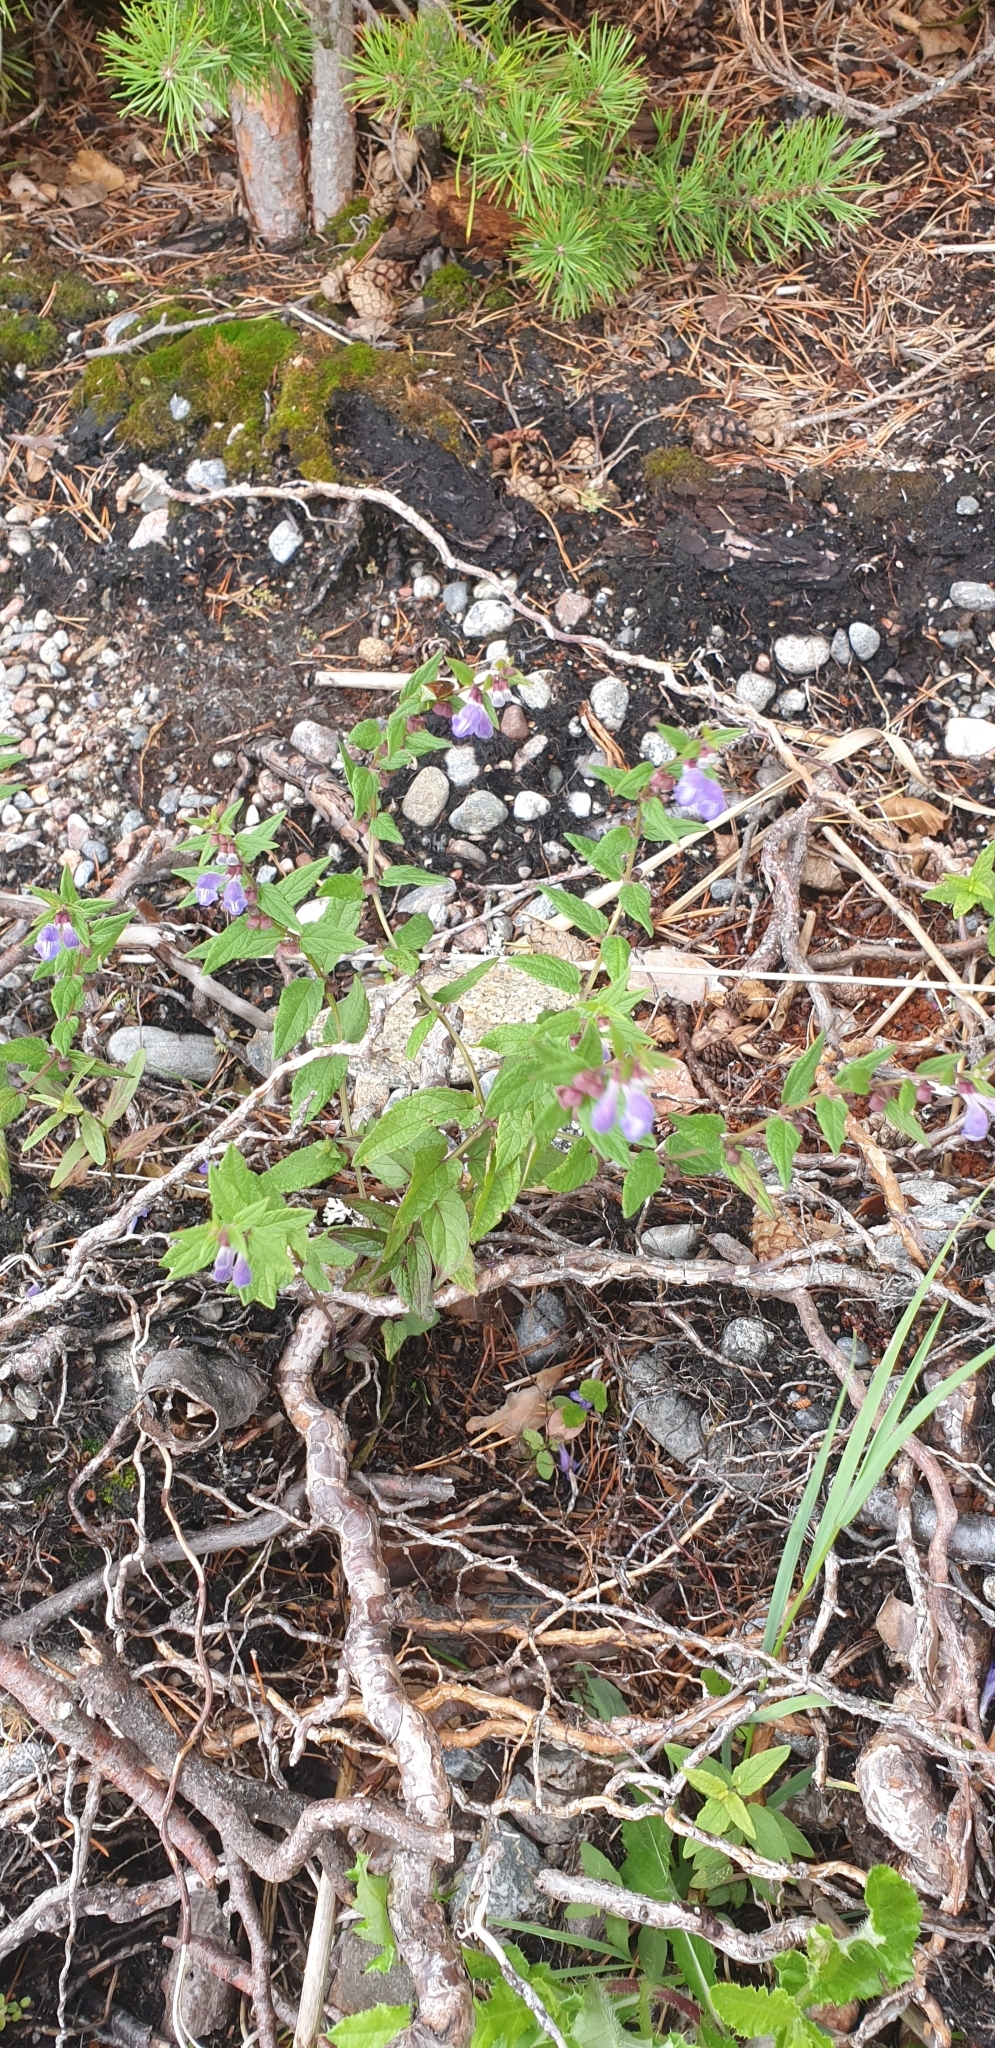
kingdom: Plantae
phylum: Tracheophyta
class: Magnoliopsida
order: Lamiales
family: Lamiaceae
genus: Scutellaria
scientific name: Scutellaria galericulata
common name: Skullcap
